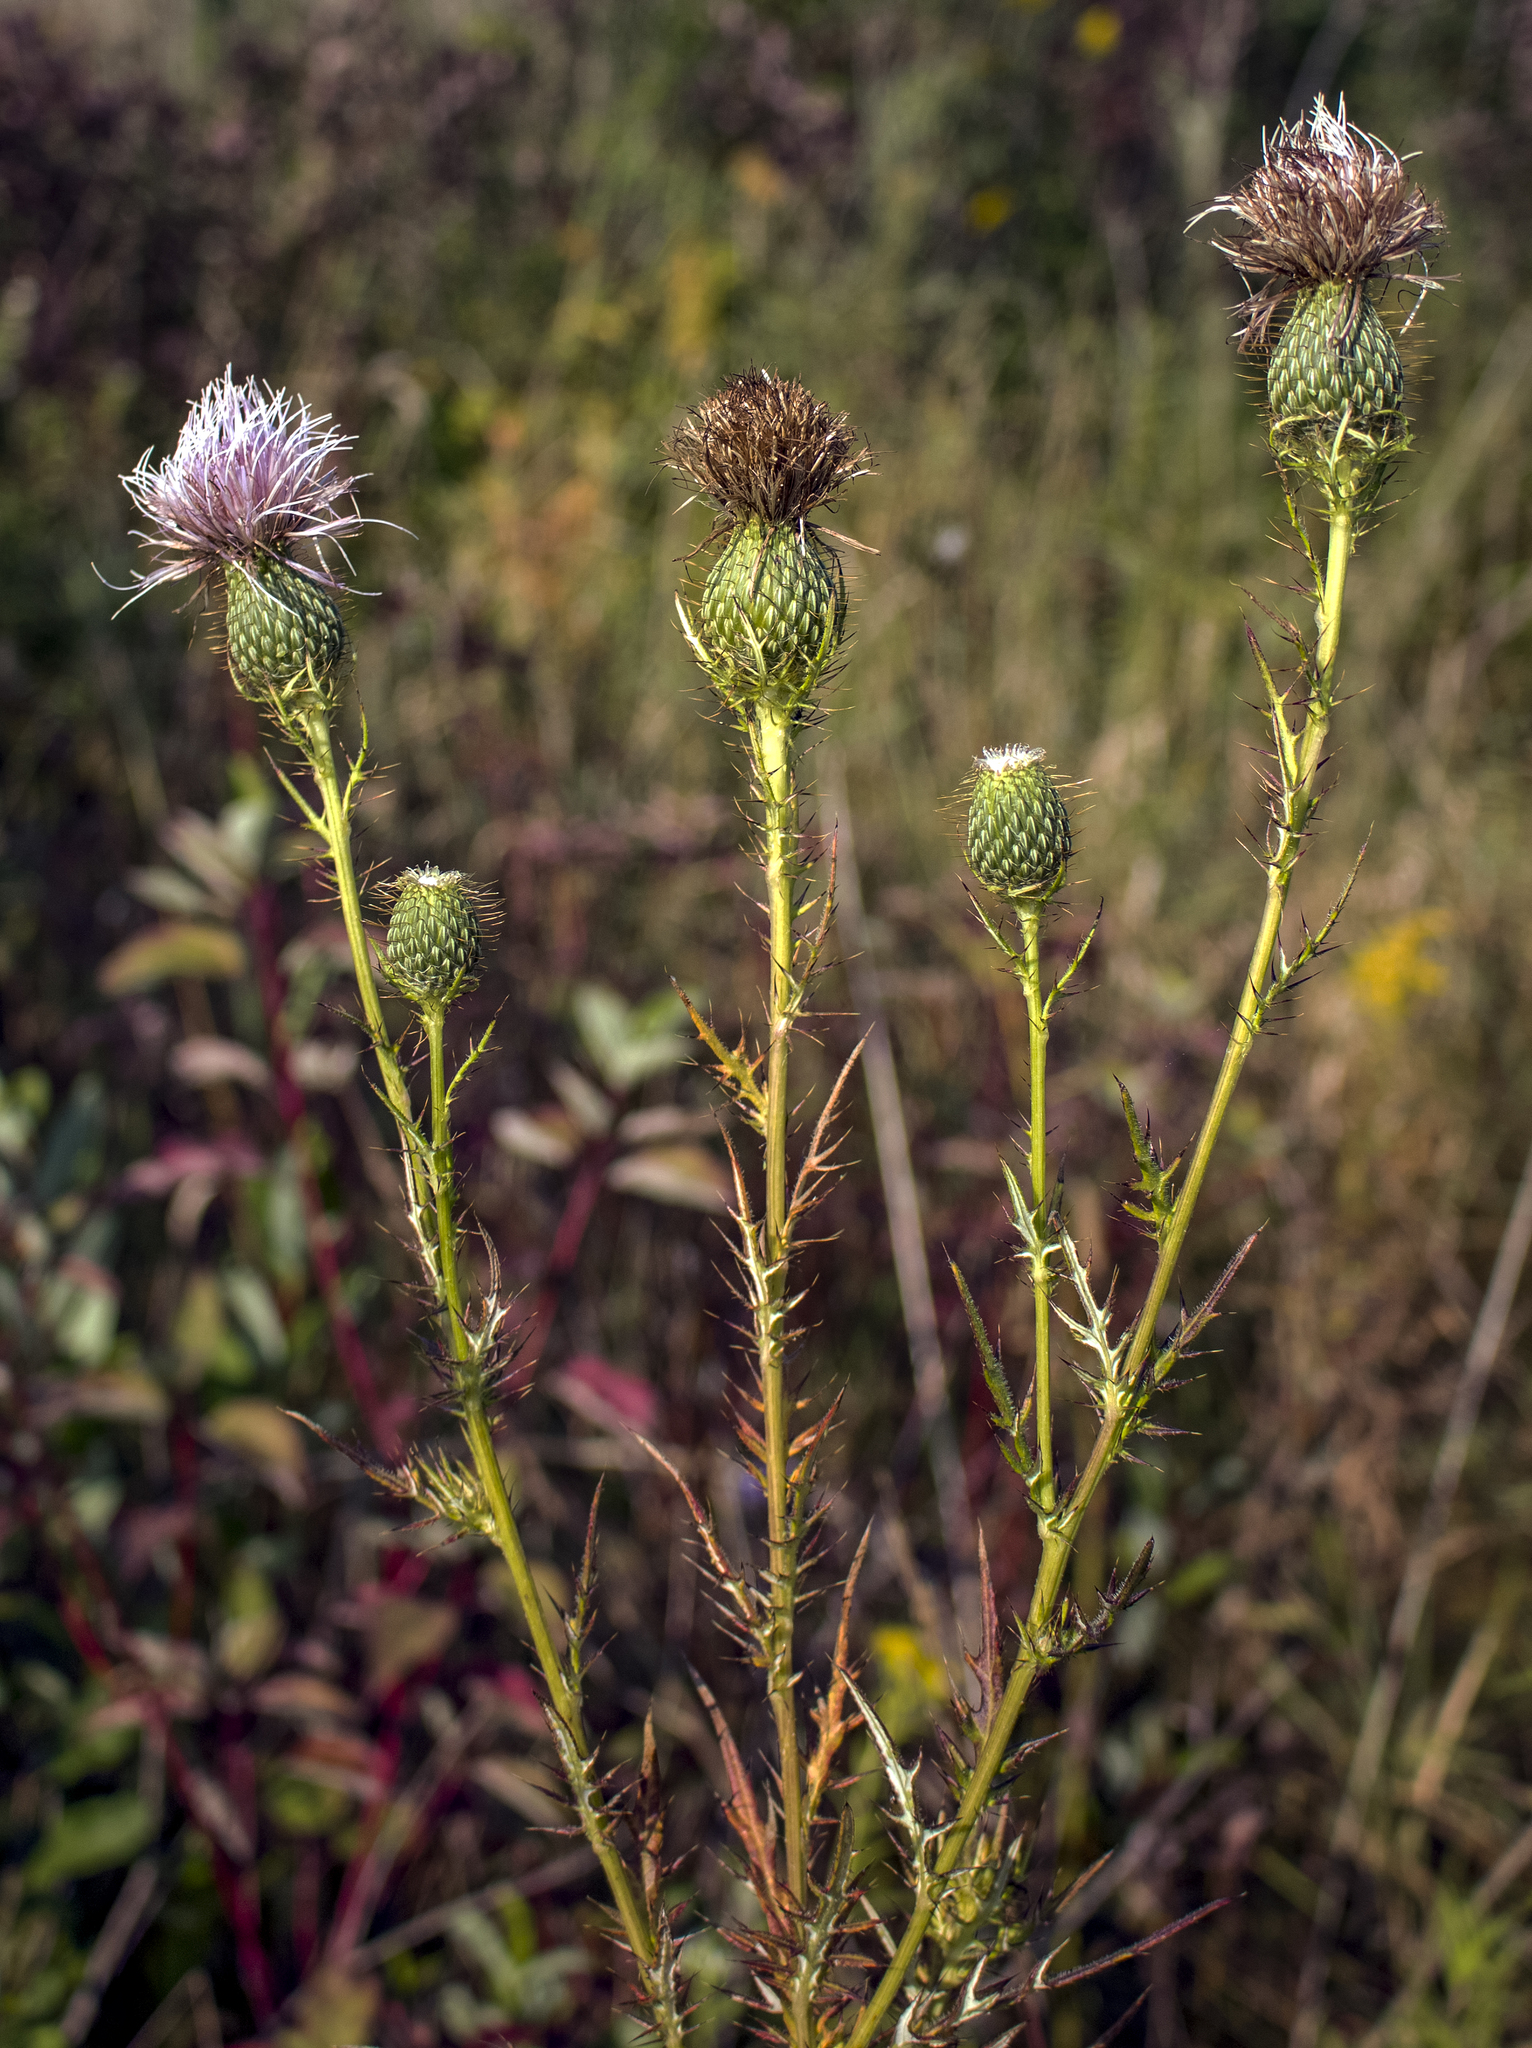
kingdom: Plantae
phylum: Tracheophyta
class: Magnoliopsida
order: Asterales
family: Asteraceae
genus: Cirsium
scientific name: Cirsium discolor
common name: Field thistle
